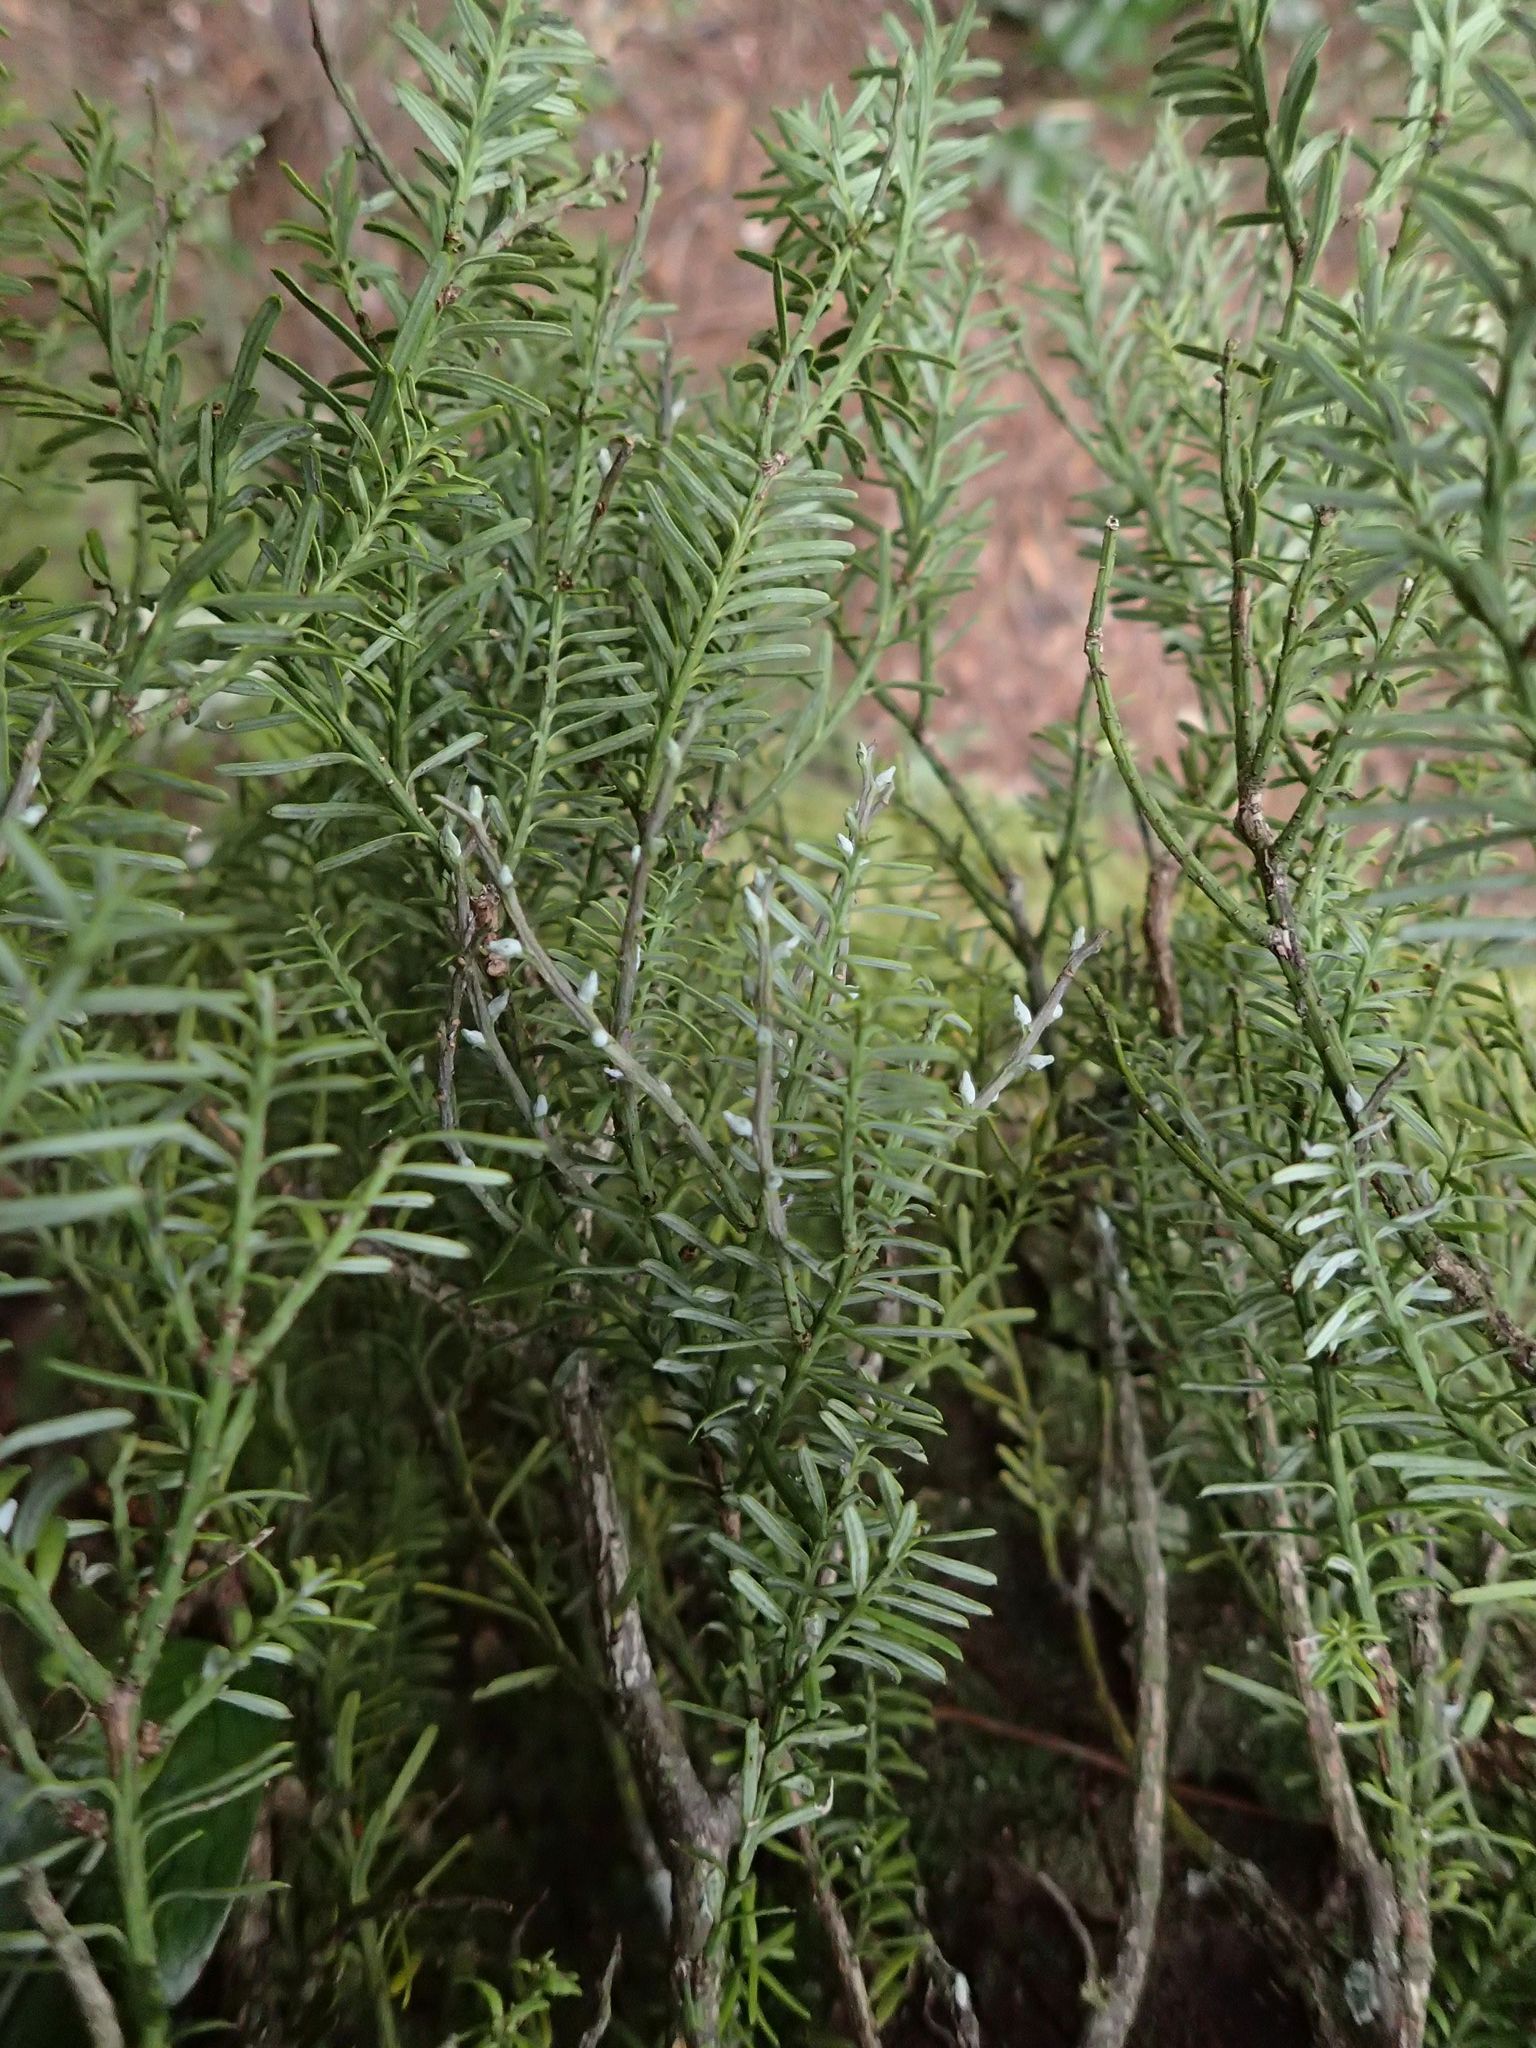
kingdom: Plantae
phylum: Tracheophyta
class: Pinopsida
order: Pinales
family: Podocarpaceae
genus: Prumnopitys
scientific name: Prumnopitys taxifolia
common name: Matai
